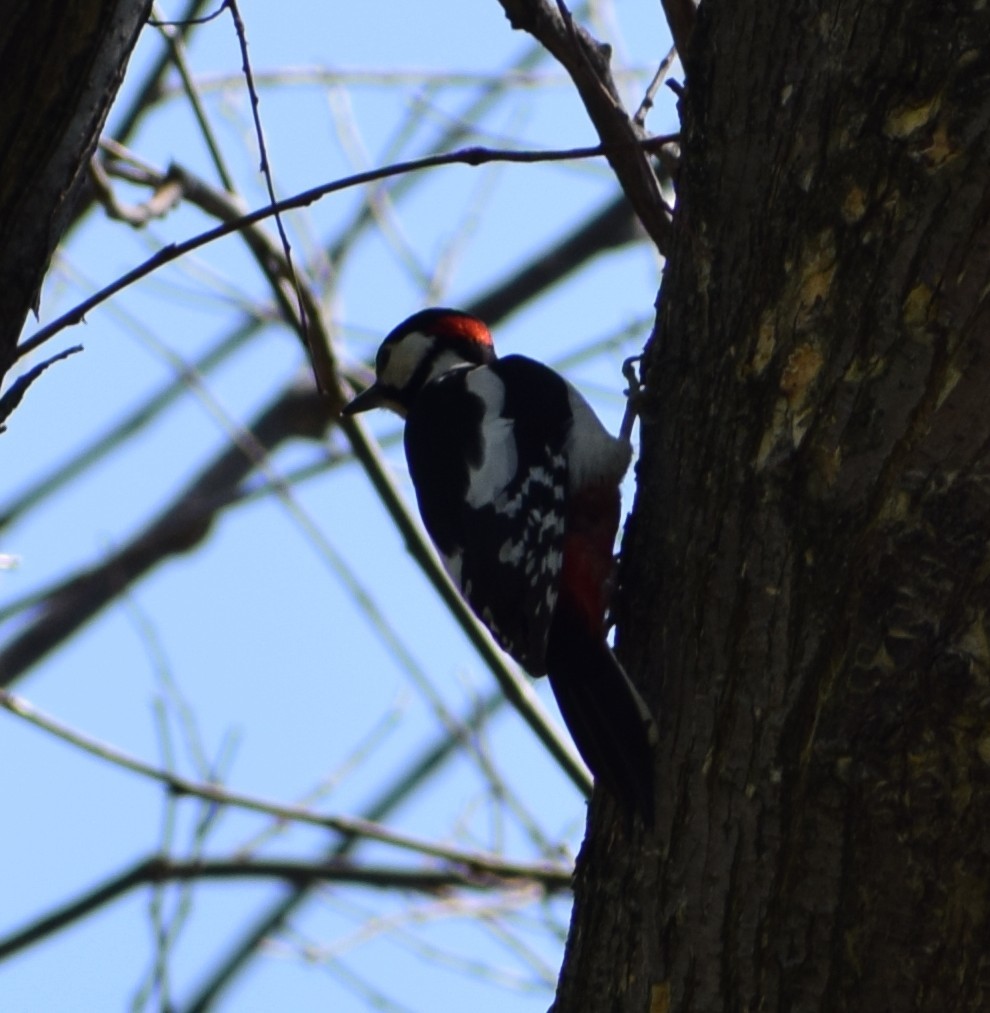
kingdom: Animalia
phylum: Chordata
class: Aves
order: Piciformes
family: Picidae
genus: Dendrocopos
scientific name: Dendrocopos major
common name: Great spotted woodpecker
